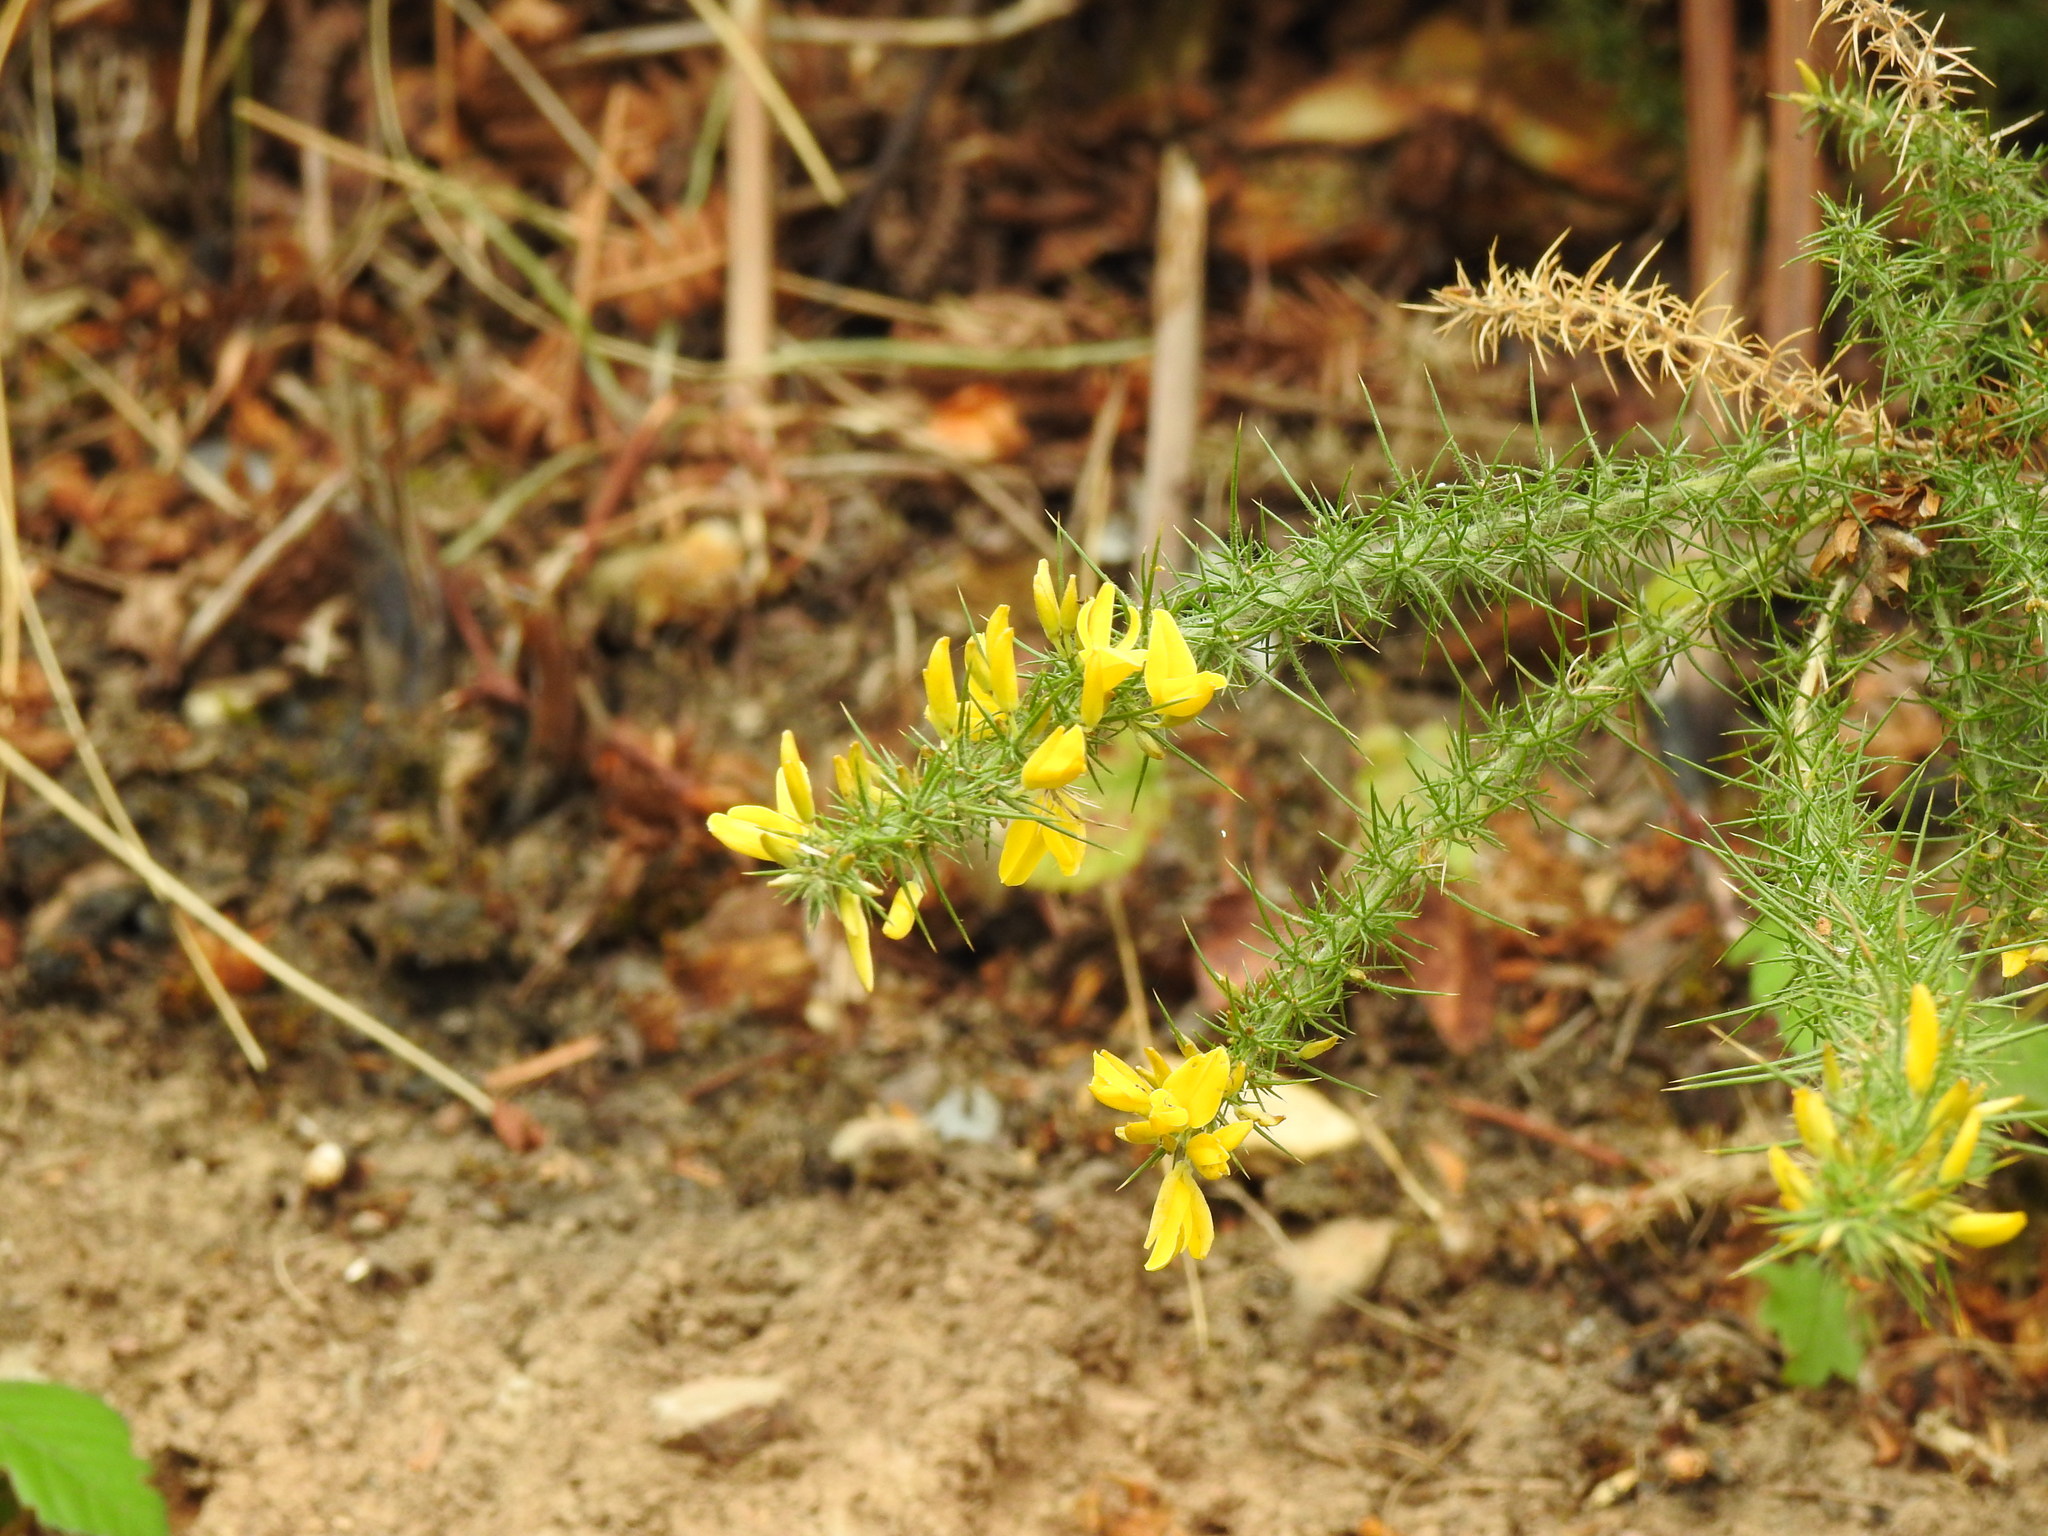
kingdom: Plantae
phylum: Tracheophyta
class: Magnoliopsida
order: Fabales
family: Fabaceae
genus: Ulex
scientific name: Ulex minor
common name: Dwarf gorse
